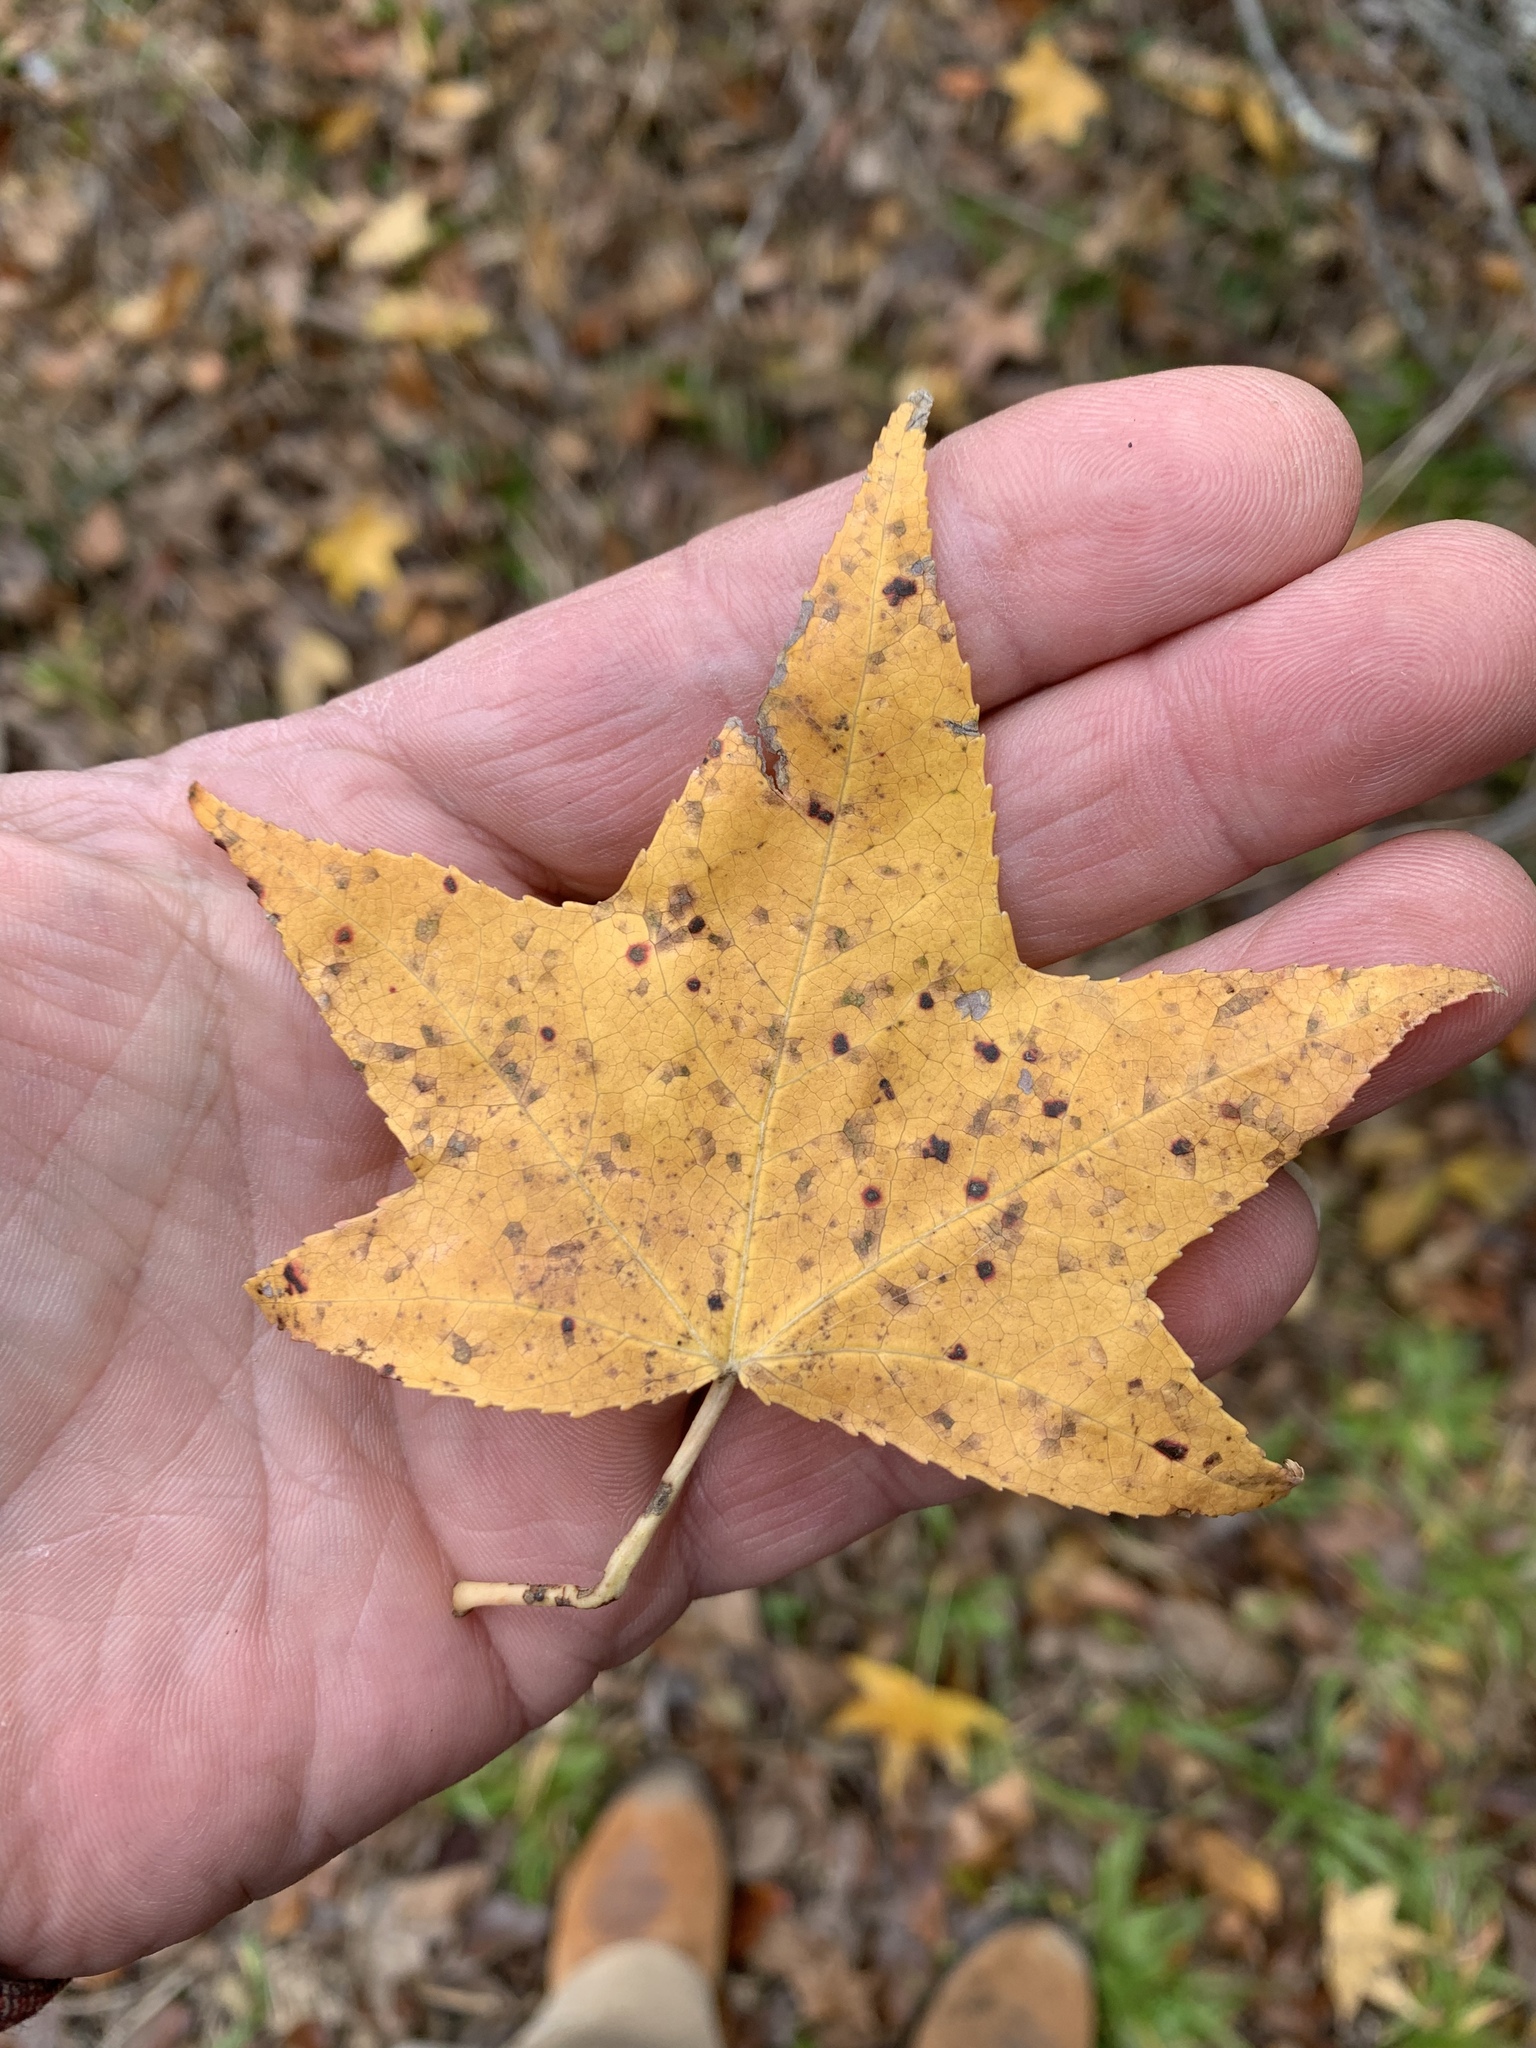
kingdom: Plantae
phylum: Tracheophyta
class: Magnoliopsida
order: Saxifragales
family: Altingiaceae
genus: Liquidambar
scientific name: Liquidambar styraciflua
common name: Sweet gum
